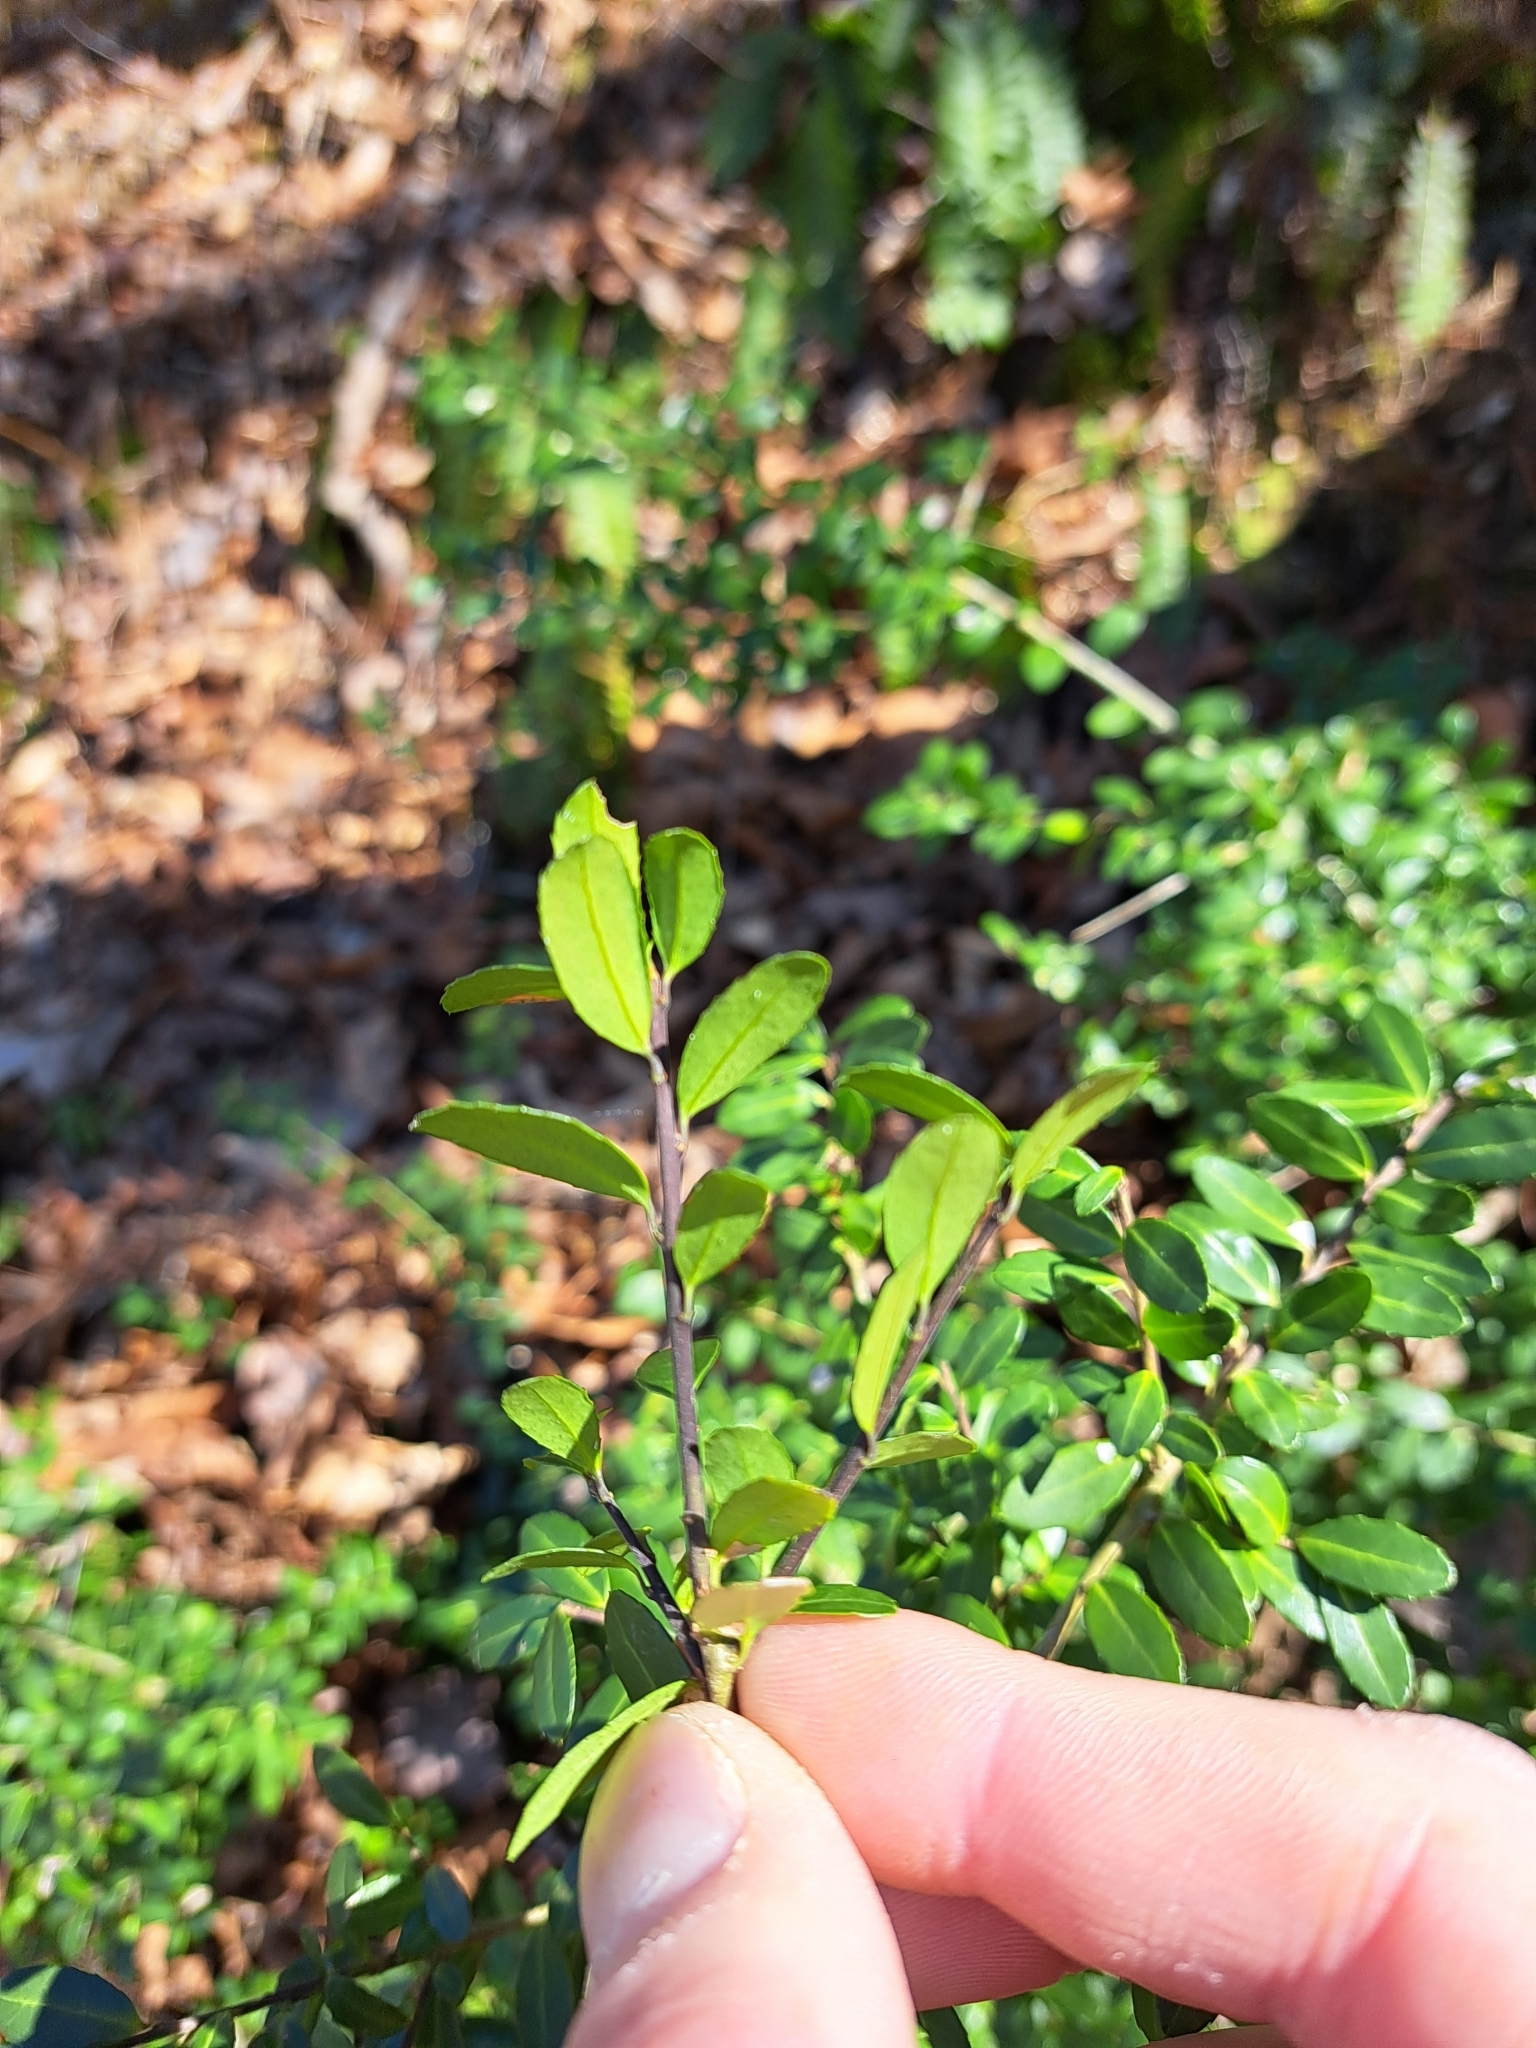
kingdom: Plantae
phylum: Tracheophyta
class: Magnoliopsida
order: Aquifoliales
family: Aquifoliaceae
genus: Ilex
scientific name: Ilex crenata
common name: Japanese holly
